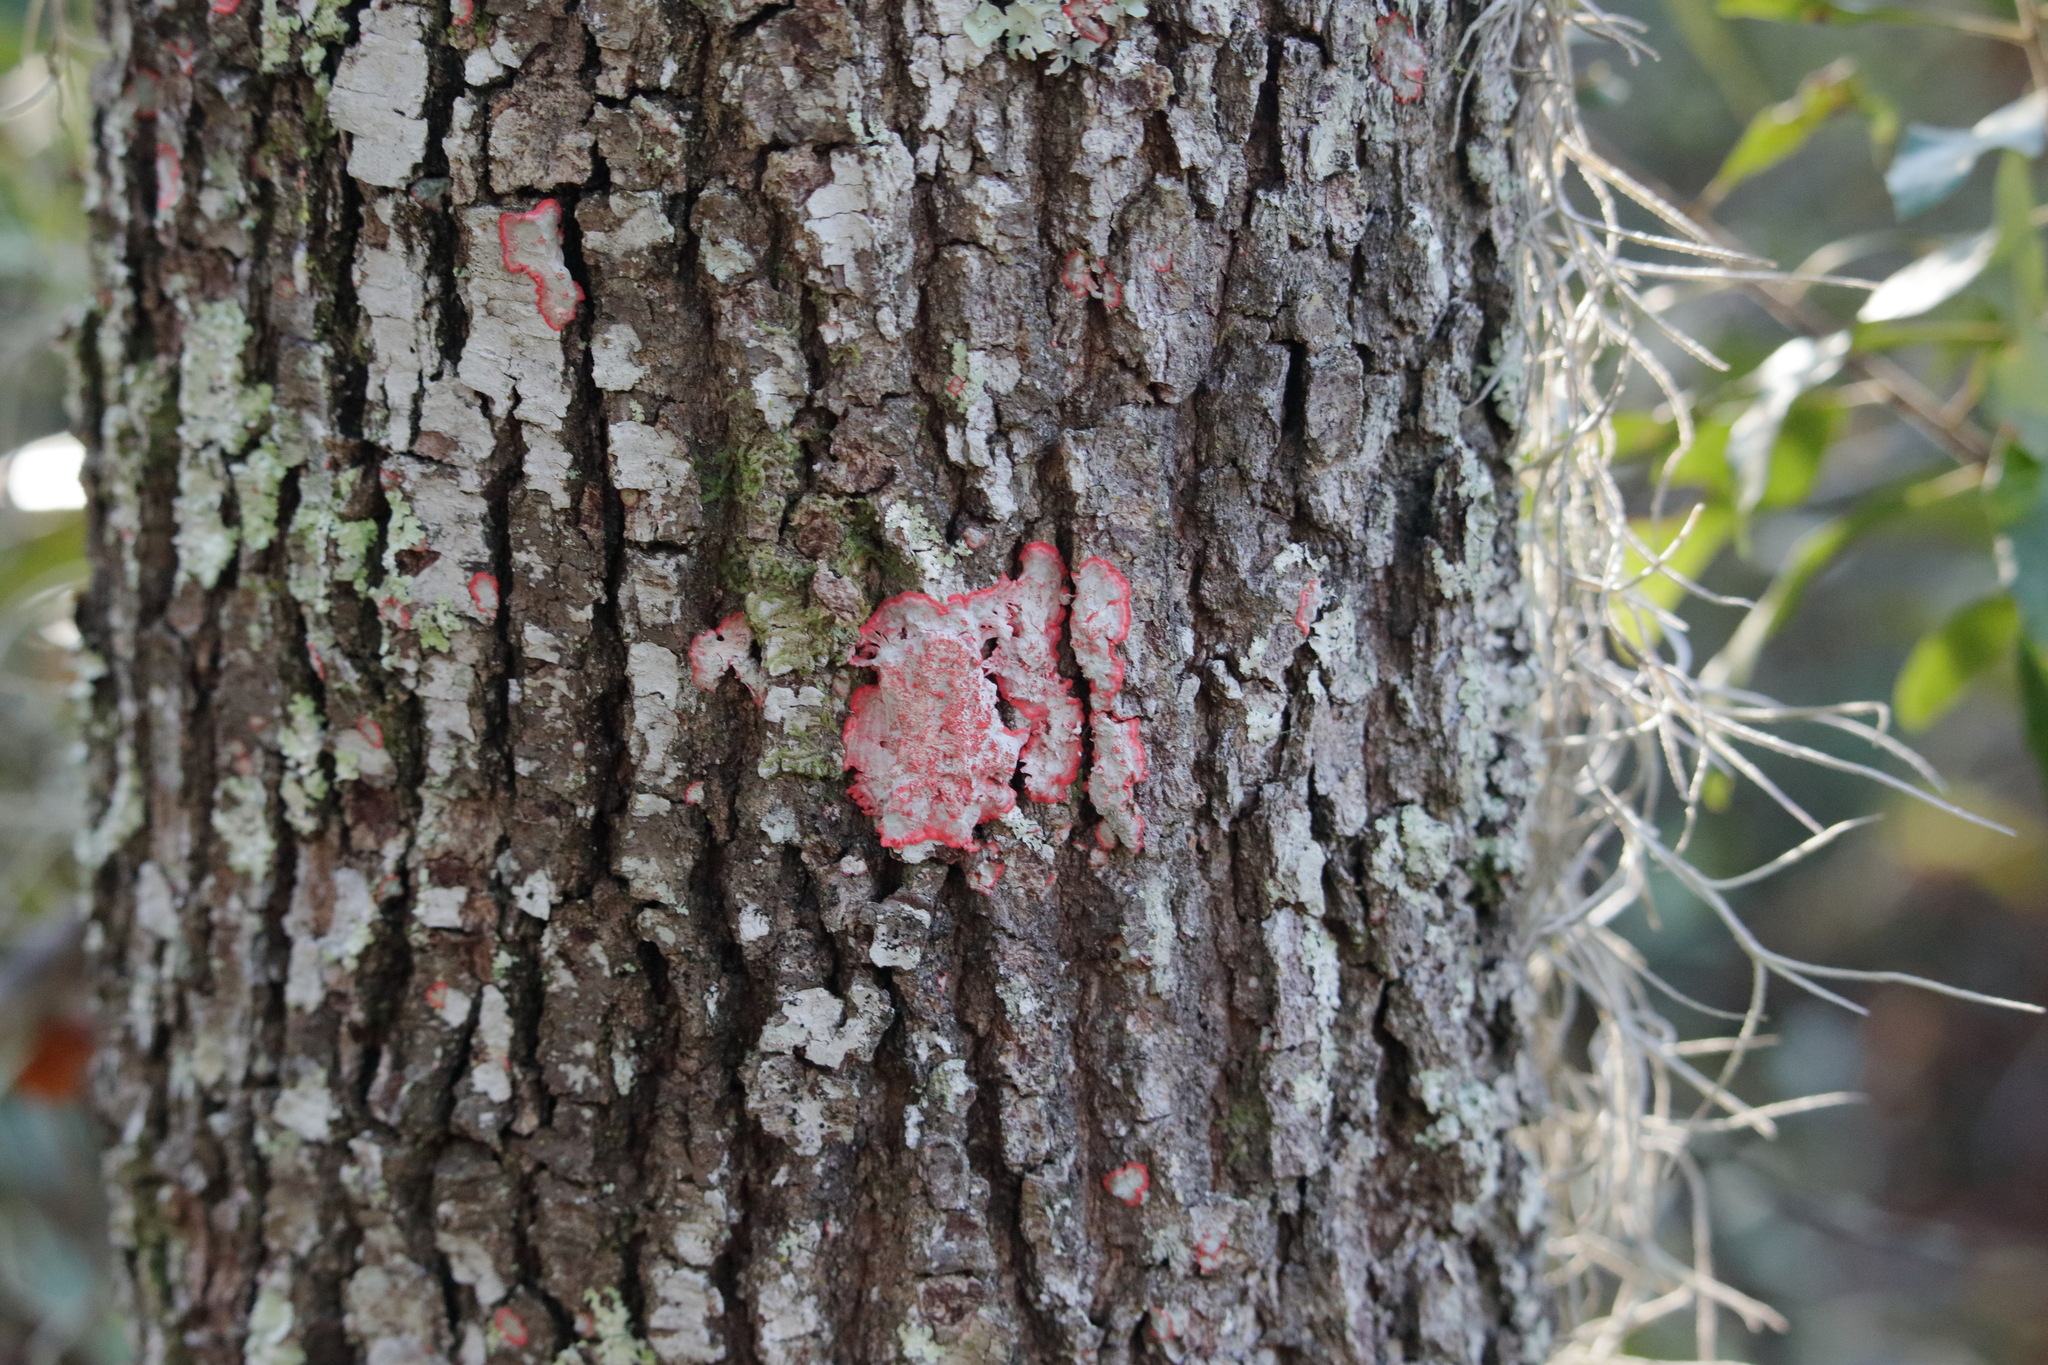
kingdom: Fungi
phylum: Ascomycota
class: Arthoniomycetes
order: Arthoniales
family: Arthoniaceae
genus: Herpothallon
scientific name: Herpothallon rubrocinctum
